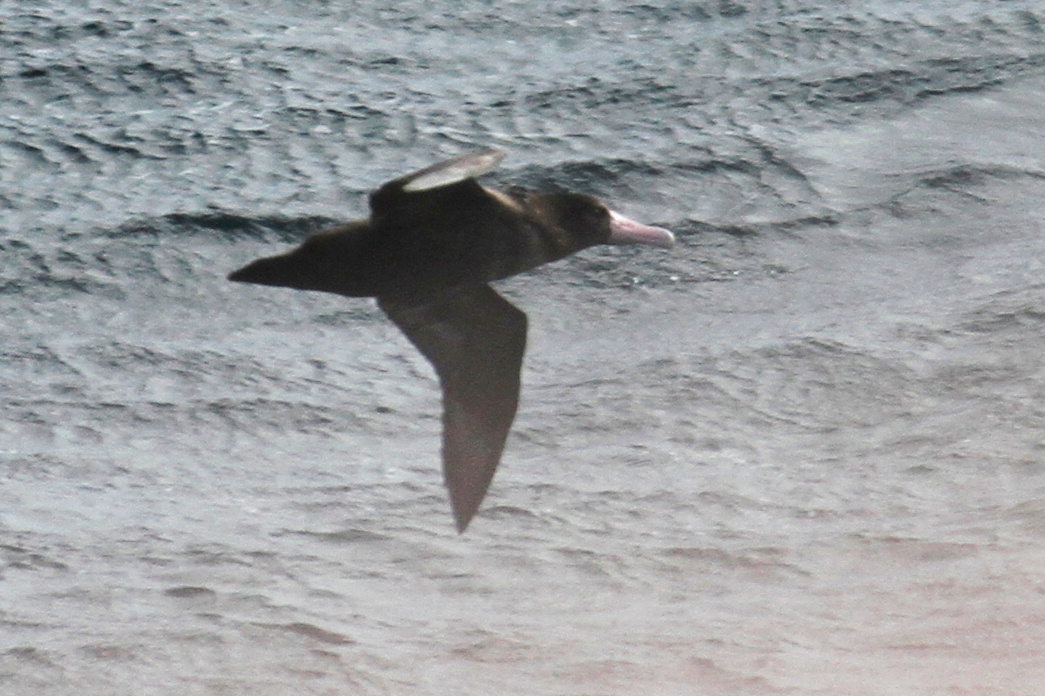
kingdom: Animalia
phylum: Chordata
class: Aves
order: Procellariiformes
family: Diomedeidae
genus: Phoebastria
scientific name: Phoebastria albatrus
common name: Short-tailed albatross
